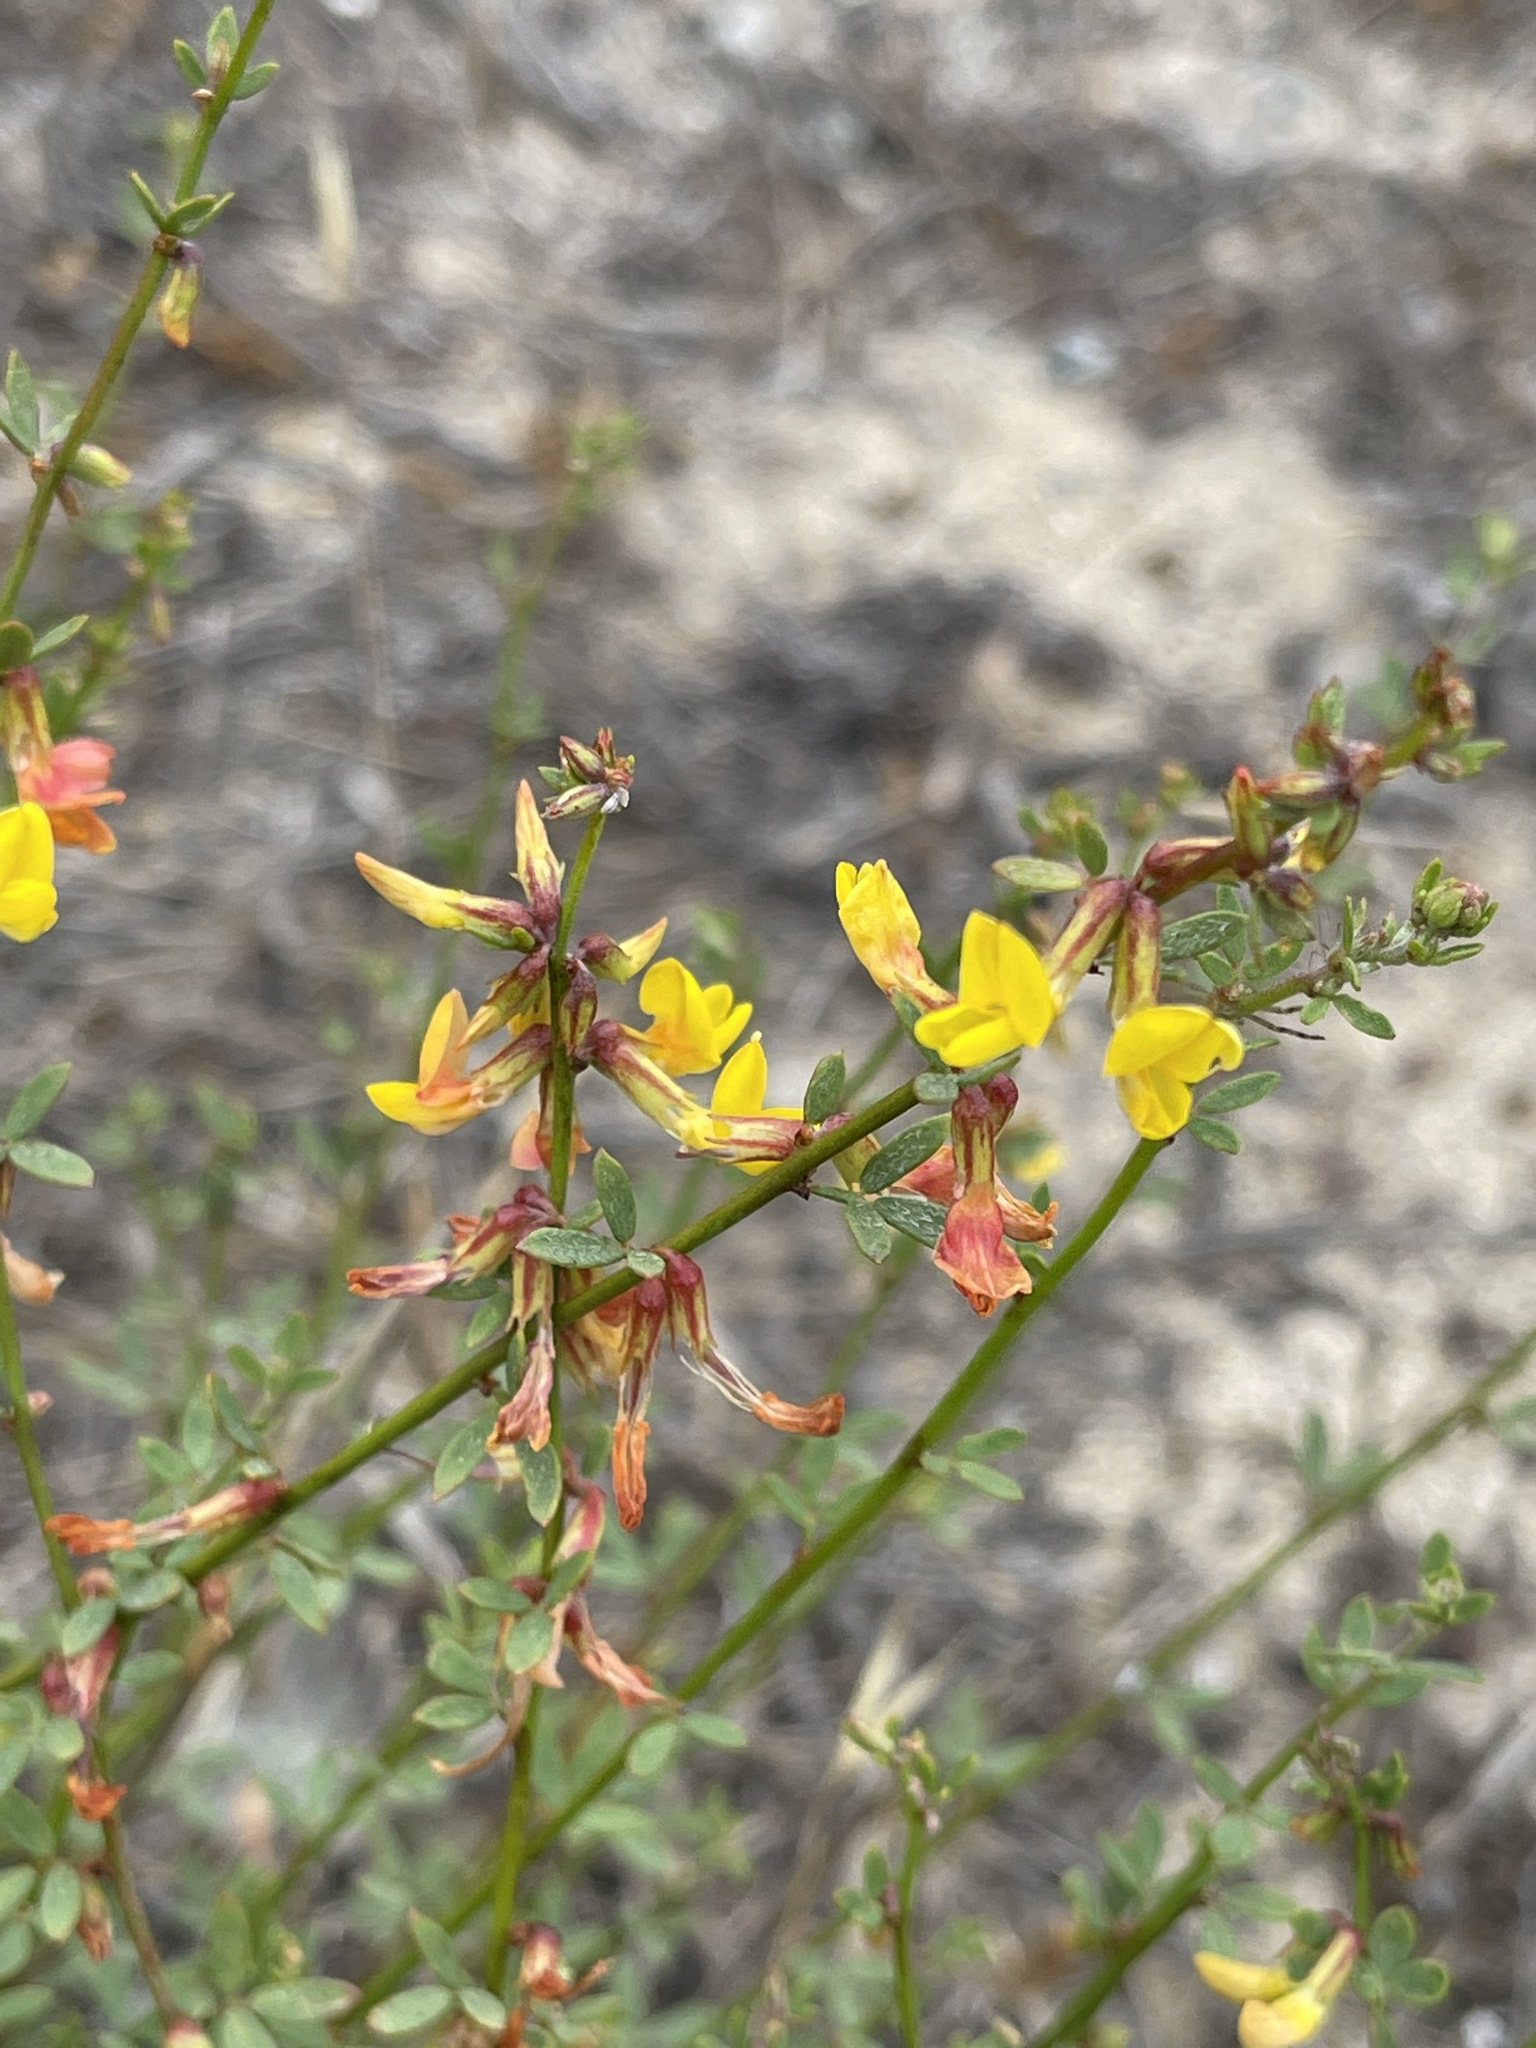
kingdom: Plantae
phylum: Tracheophyta
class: Magnoliopsida
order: Fabales
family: Fabaceae
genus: Acmispon
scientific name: Acmispon glaber
